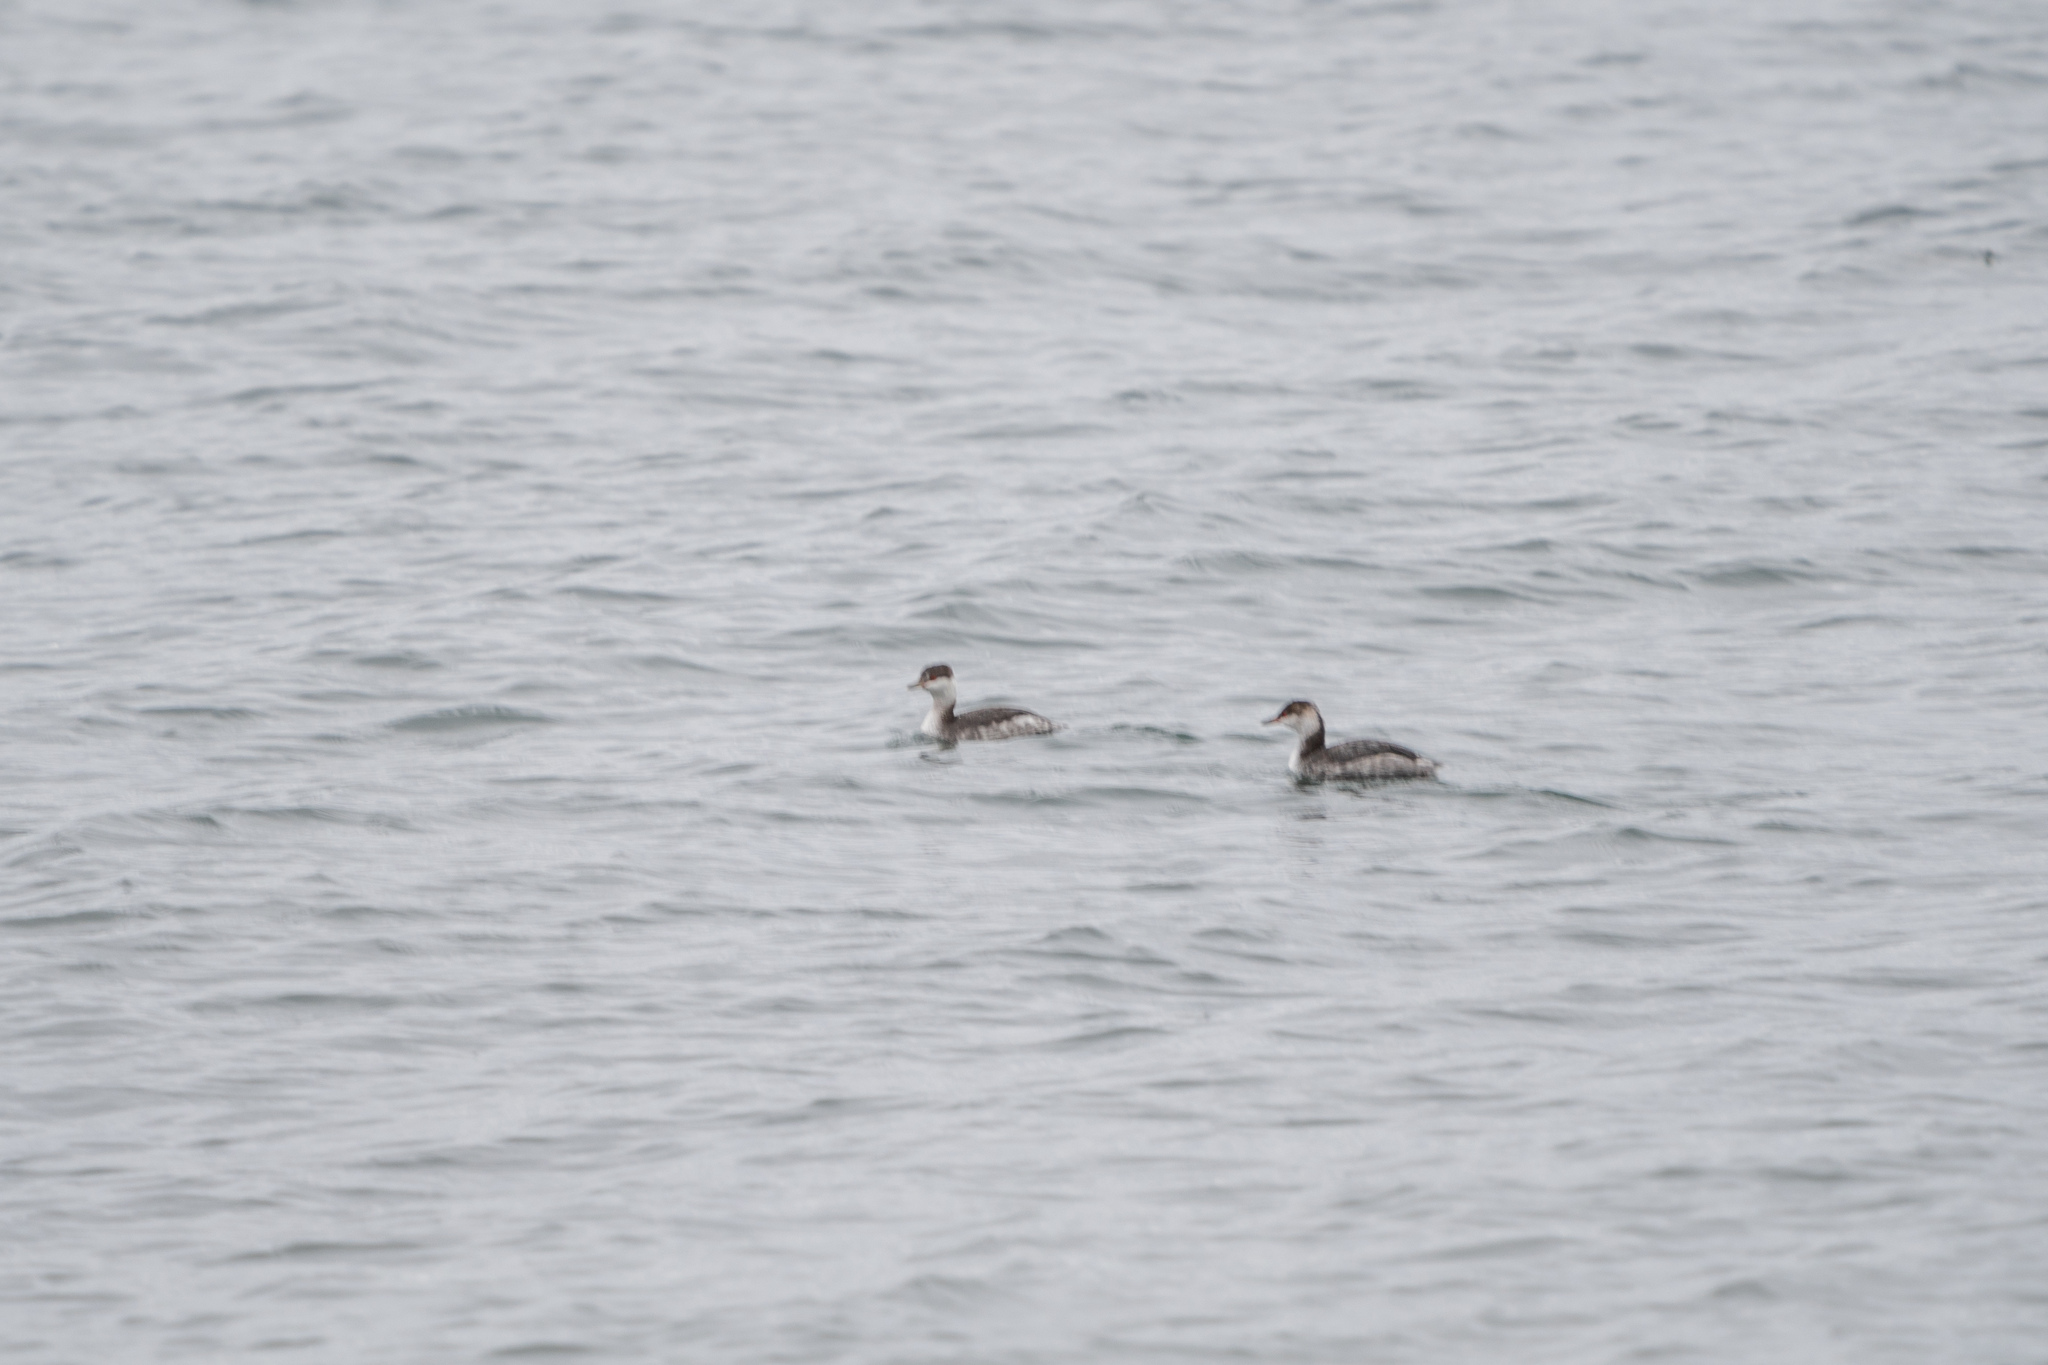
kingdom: Animalia
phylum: Chordata
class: Aves
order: Podicipediformes
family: Podicipedidae
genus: Podiceps
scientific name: Podiceps auritus
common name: Horned grebe
